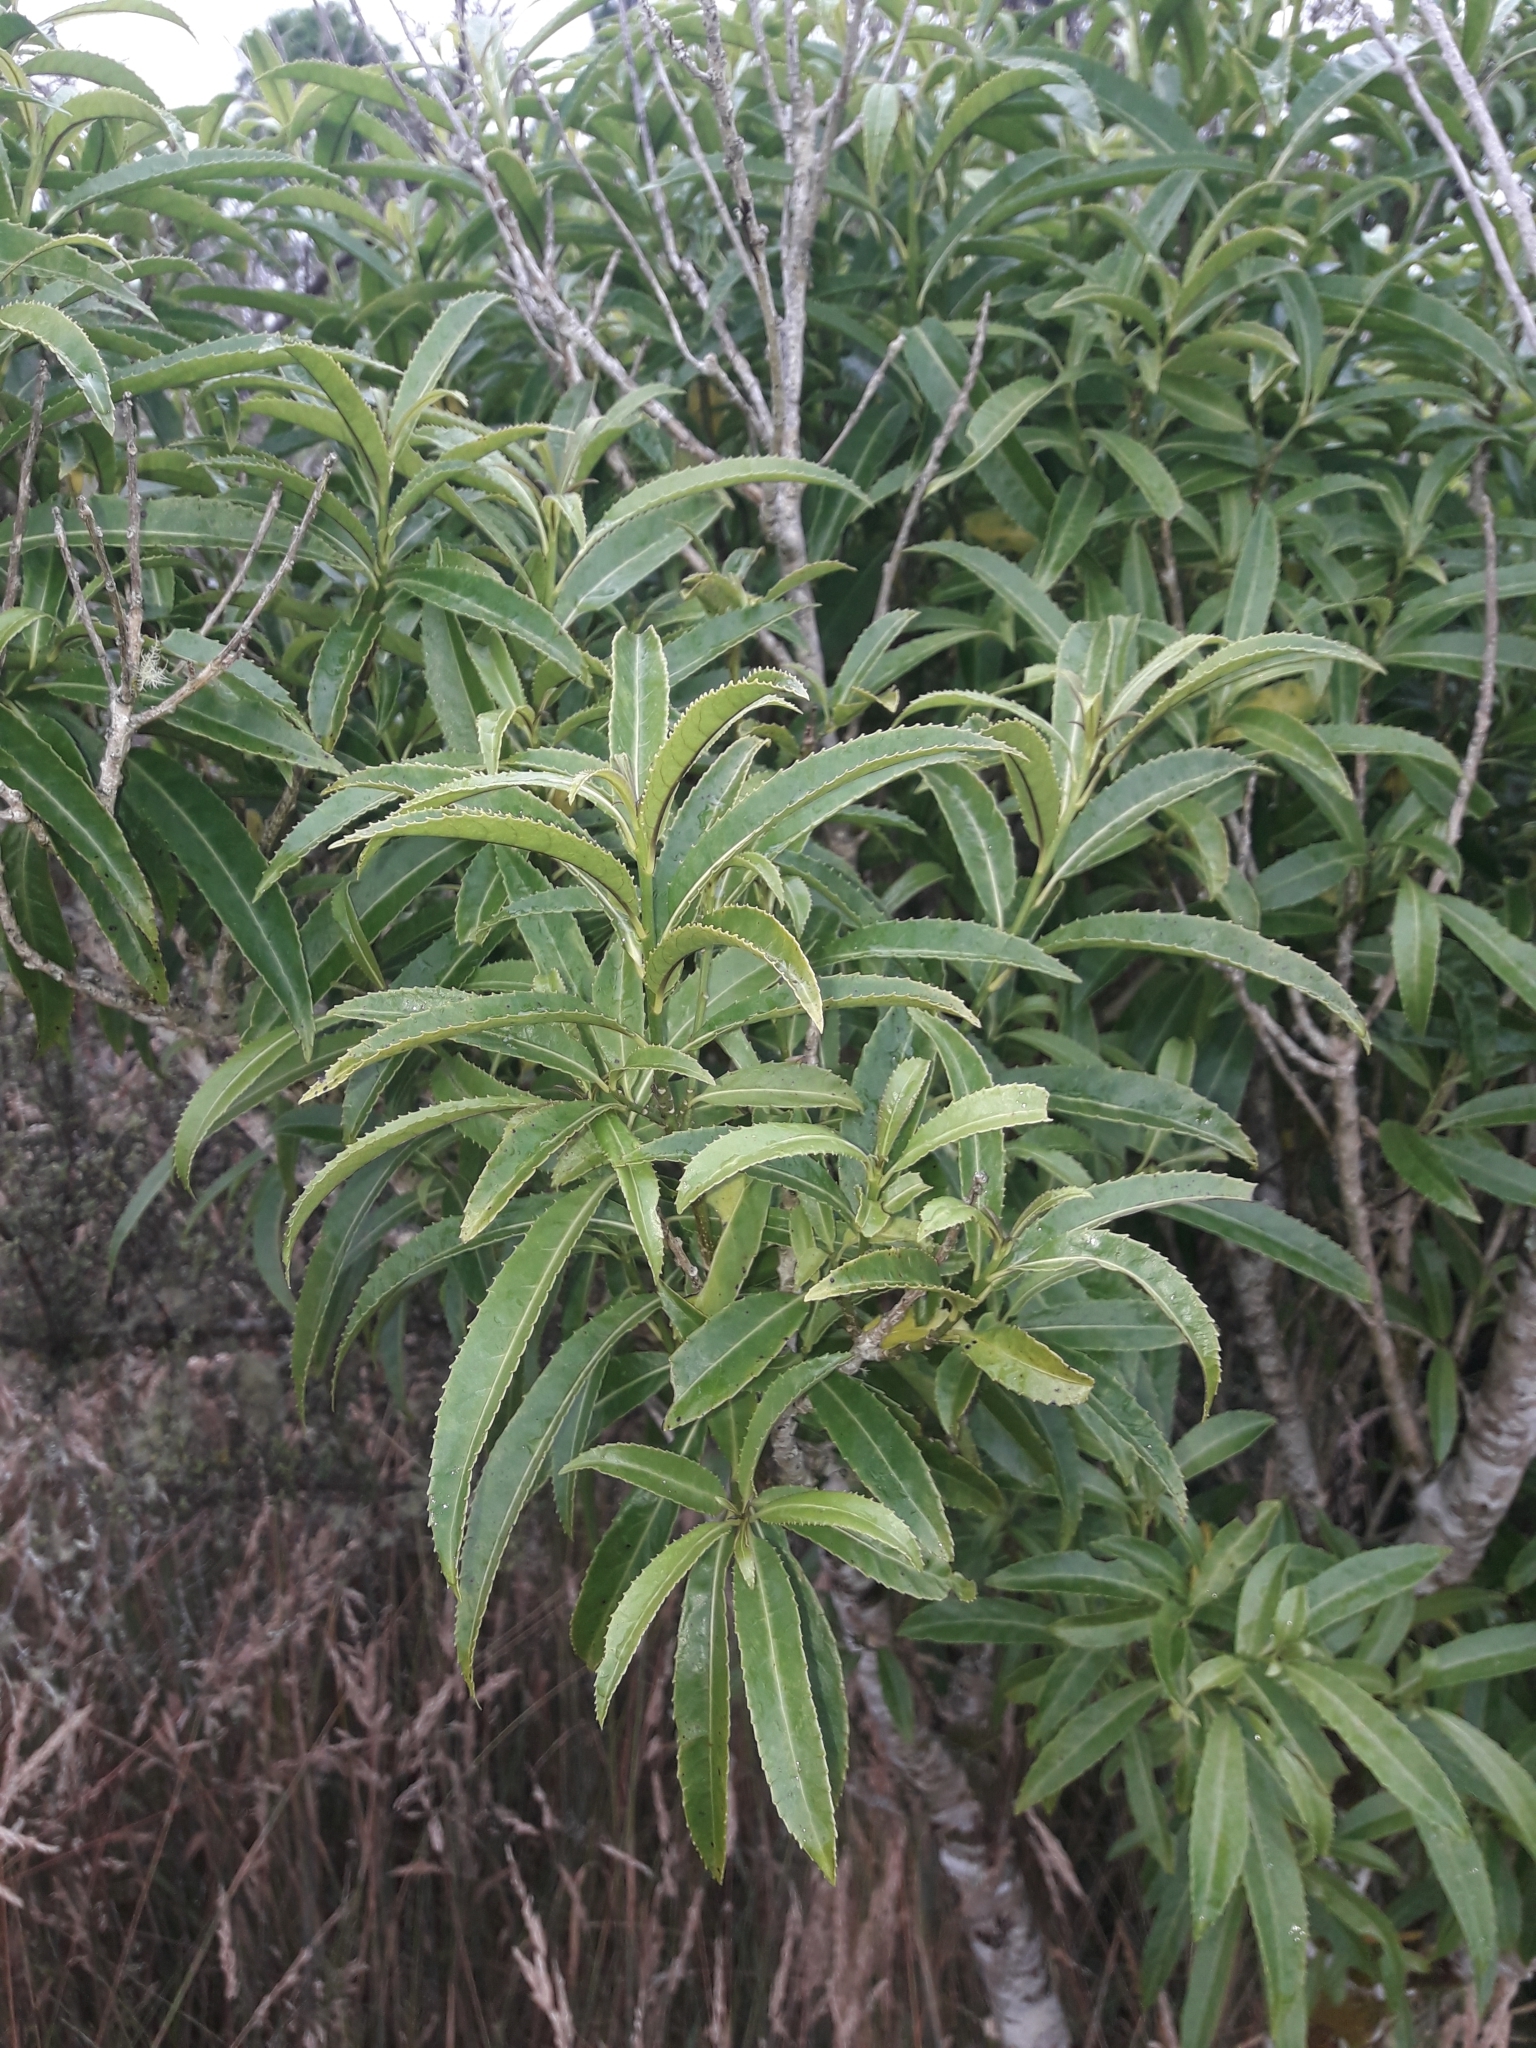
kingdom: Plantae
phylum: Tracheophyta
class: Magnoliopsida
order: Malpighiales
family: Violaceae
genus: Melicytus
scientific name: Melicytus lanceolatus
